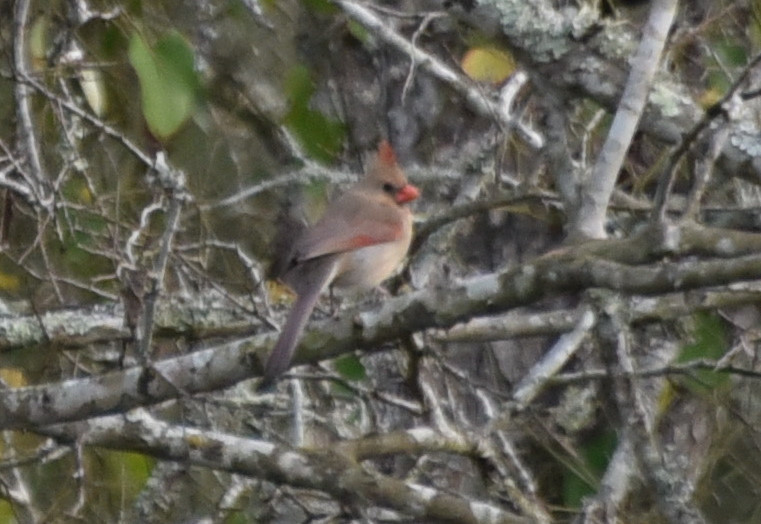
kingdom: Animalia
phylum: Chordata
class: Aves
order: Passeriformes
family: Cardinalidae
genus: Cardinalis
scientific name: Cardinalis cardinalis
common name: Northern cardinal
